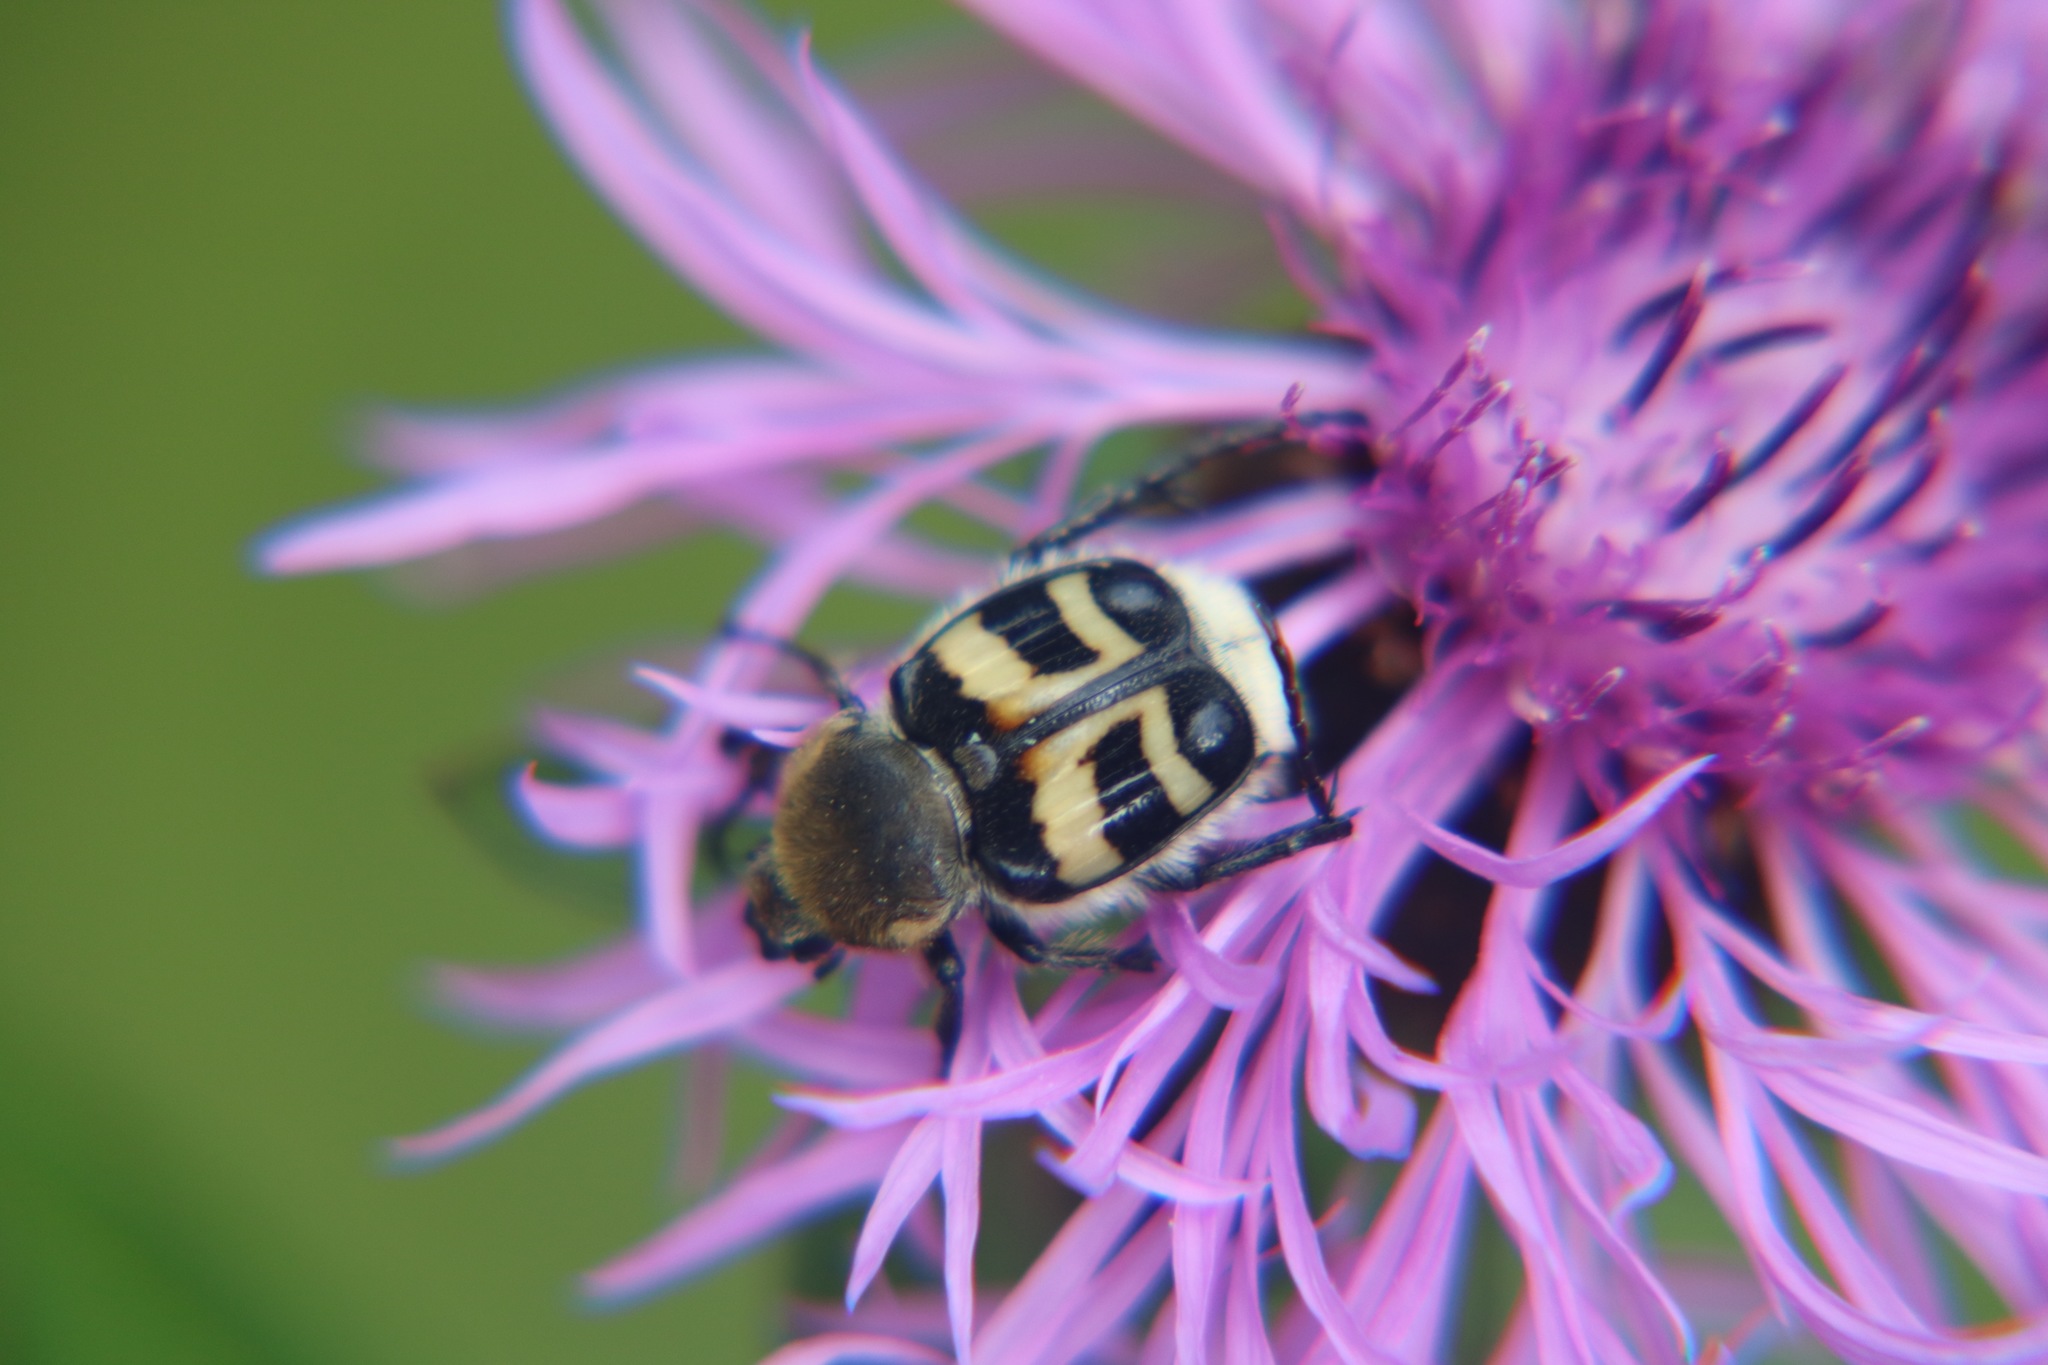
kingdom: Animalia
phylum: Arthropoda
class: Insecta
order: Coleoptera
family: Scarabaeidae
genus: Trichius
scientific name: Trichius fasciatus
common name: Bee beetle
